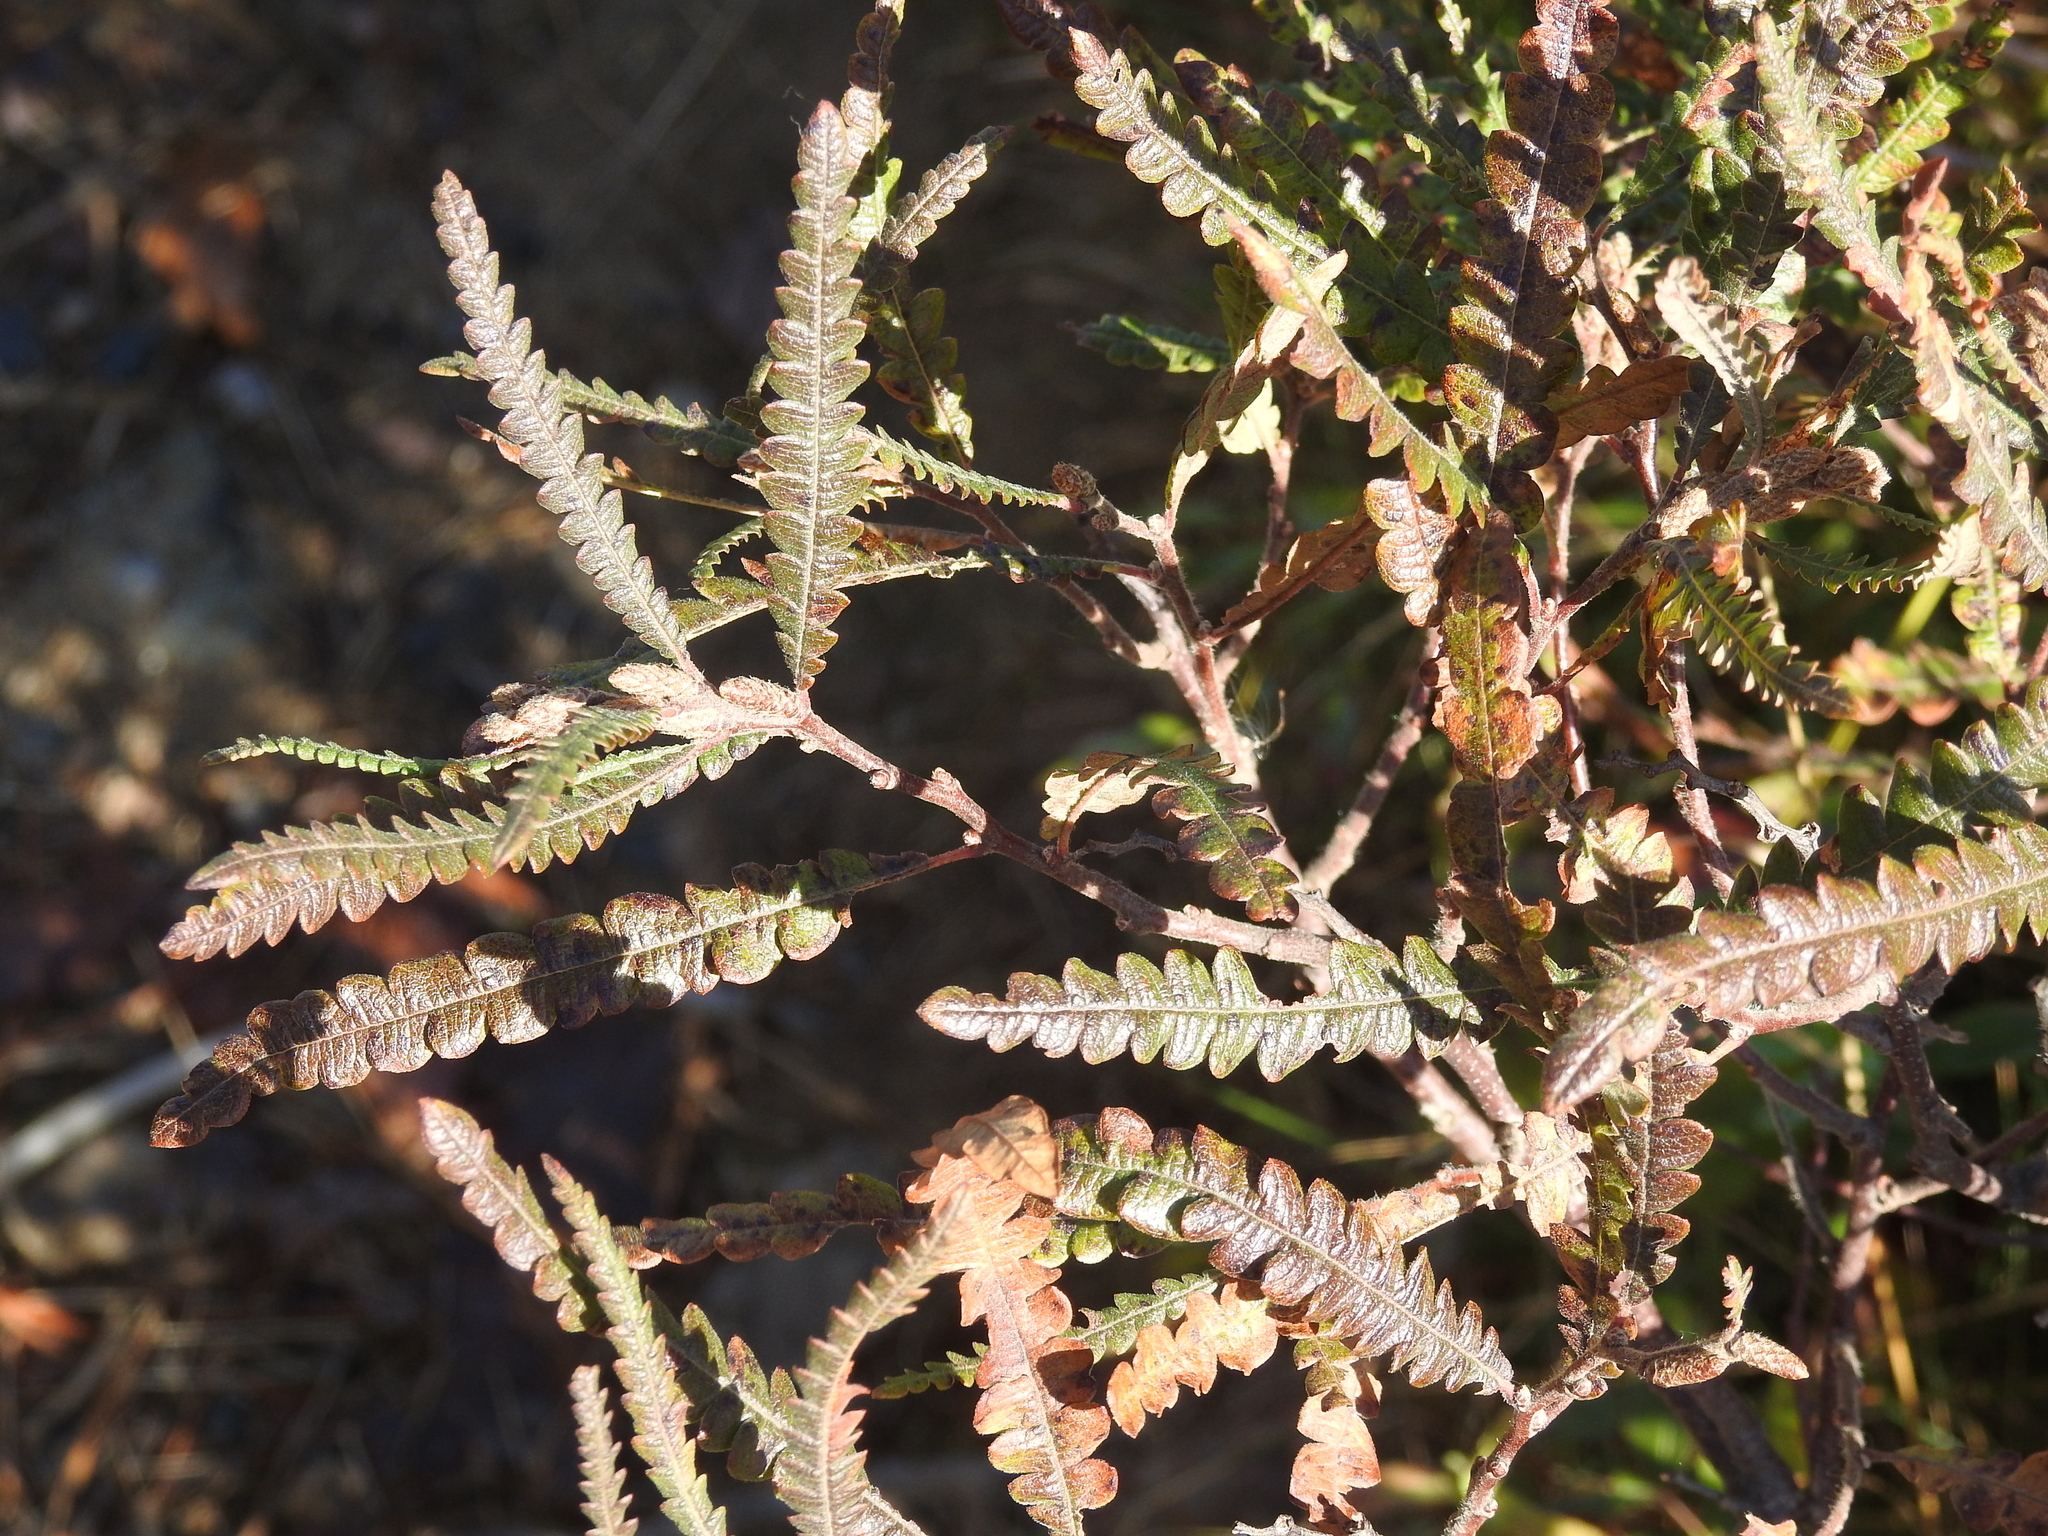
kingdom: Plantae
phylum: Tracheophyta
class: Magnoliopsida
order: Fagales
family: Myricaceae
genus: Comptonia
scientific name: Comptonia peregrina
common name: Sweet-fern
